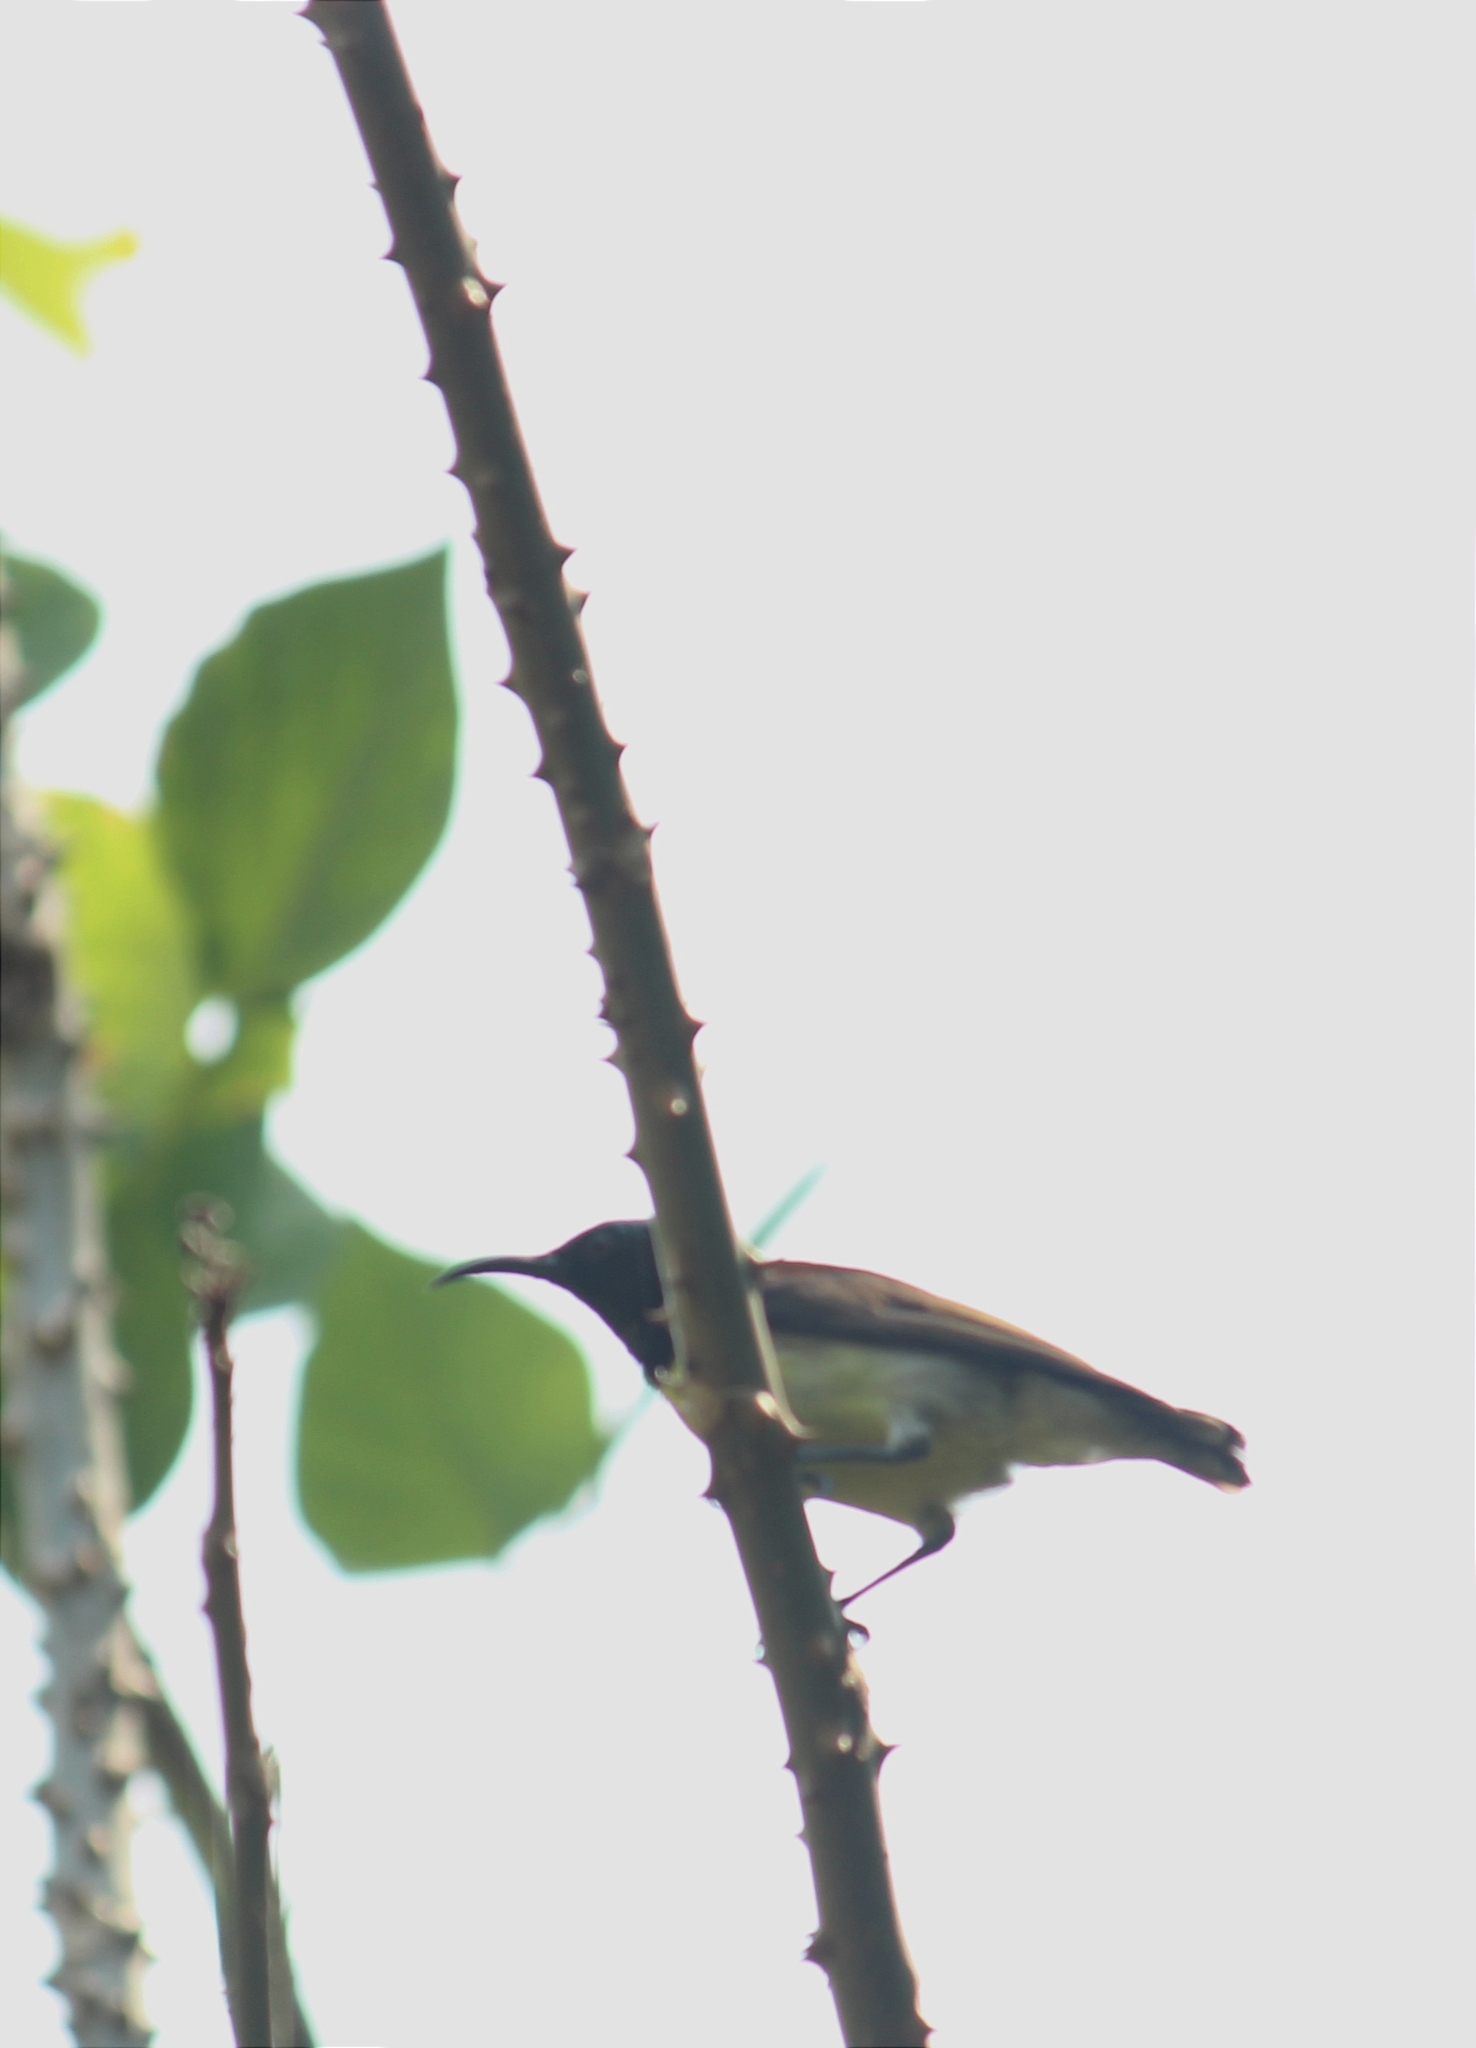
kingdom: Animalia
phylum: Chordata
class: Aves
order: Passeriformes
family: Nectariniidae
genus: Leptocoma
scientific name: Leptocoma zeylonica
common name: Purple-rumped sunbird
